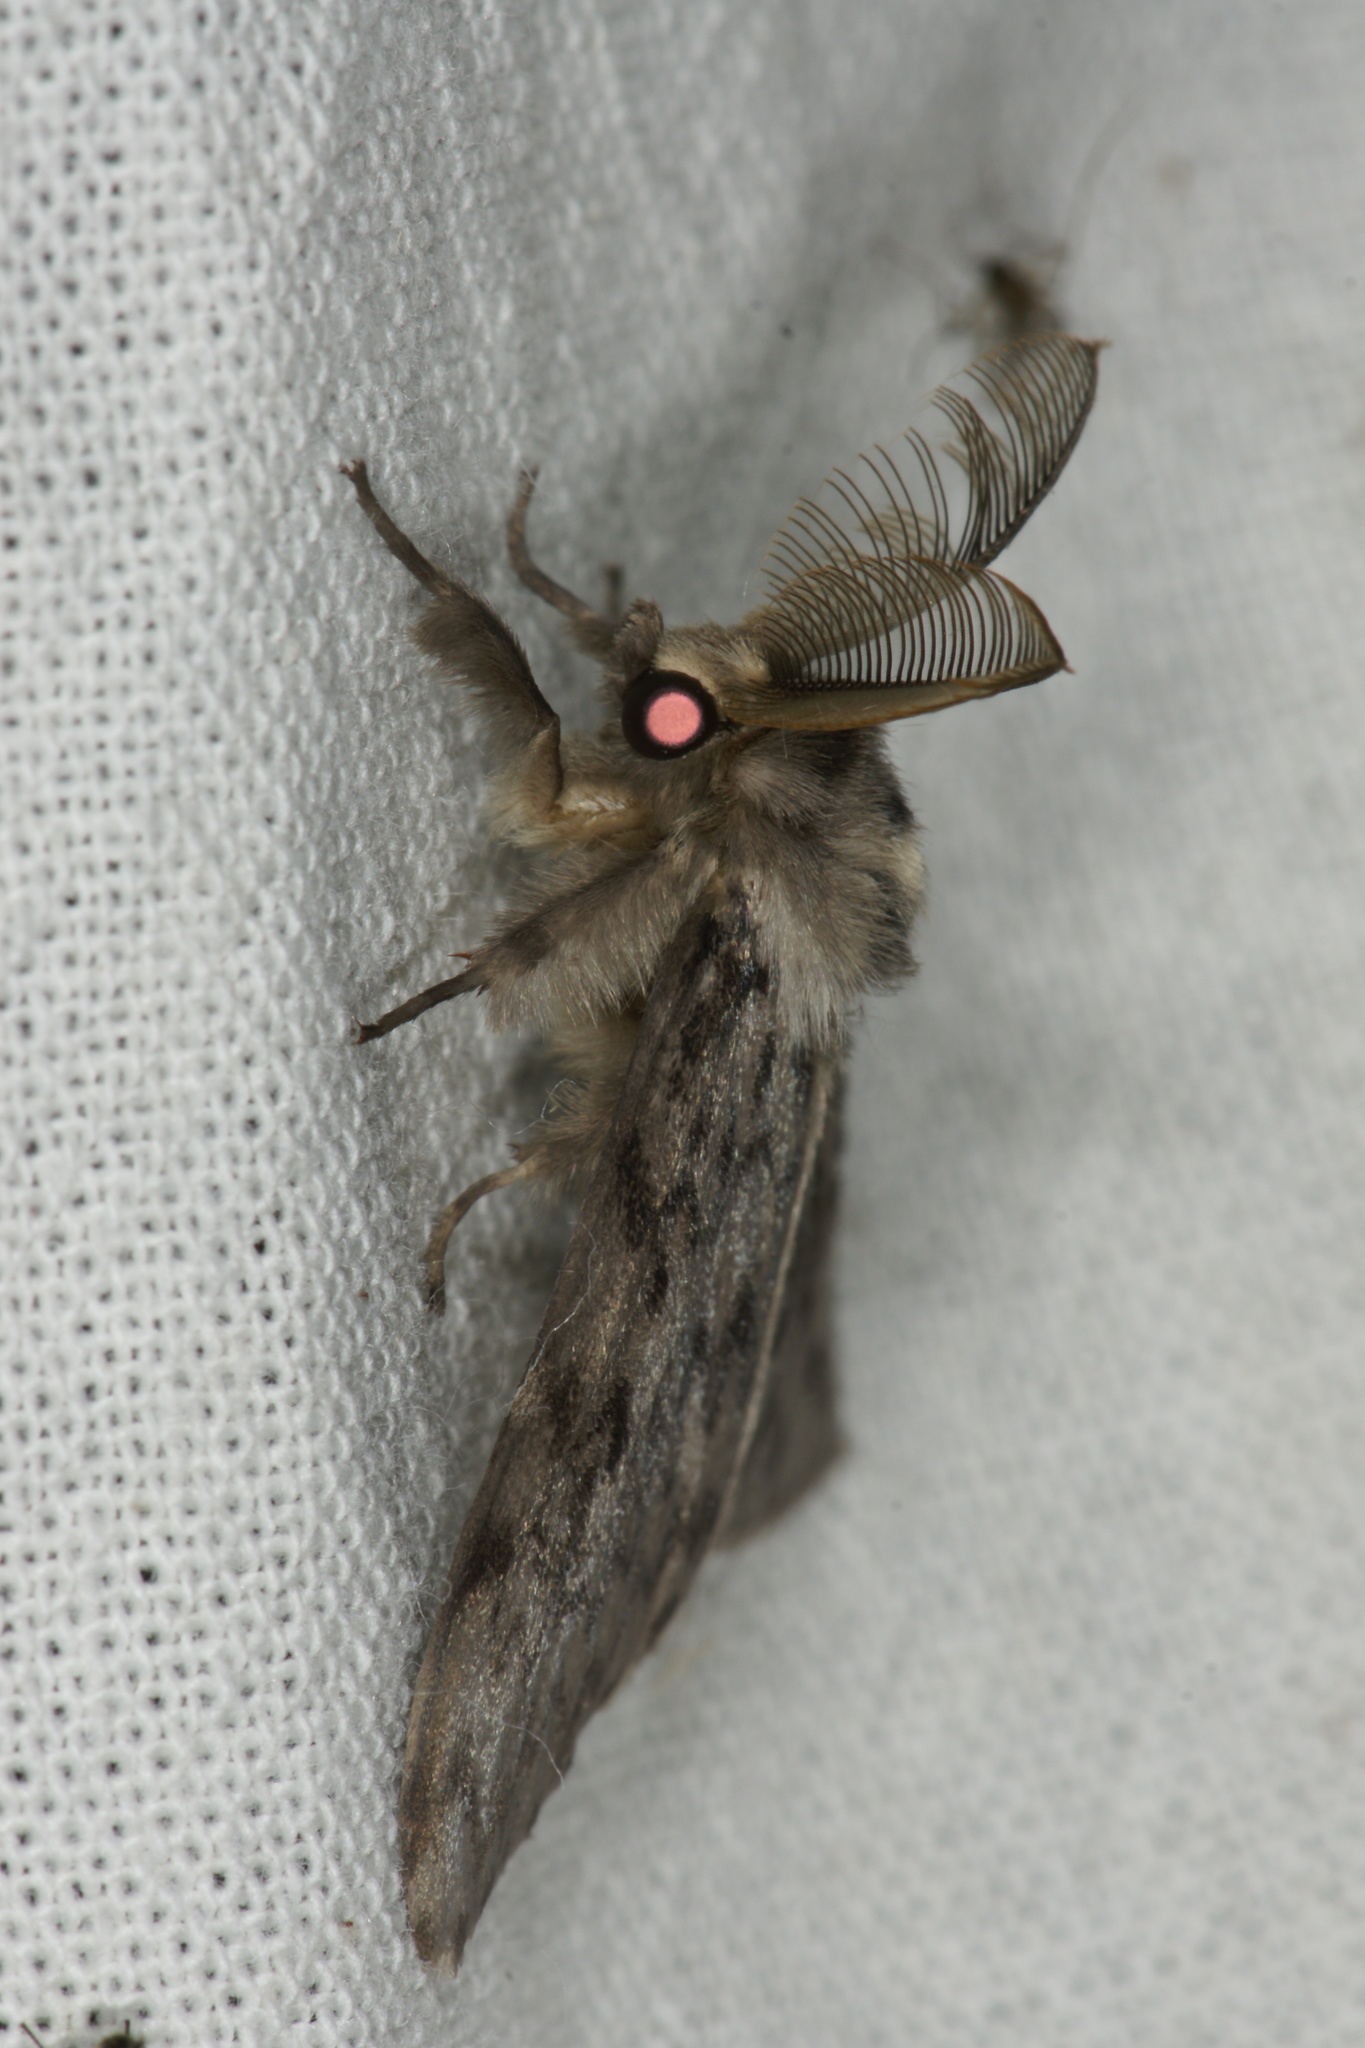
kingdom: Animalia
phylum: Arthropoda
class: Insecta
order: Lepidoptera
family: Erebidae
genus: Lymantria
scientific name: Lymantria monacha
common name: Black arches
